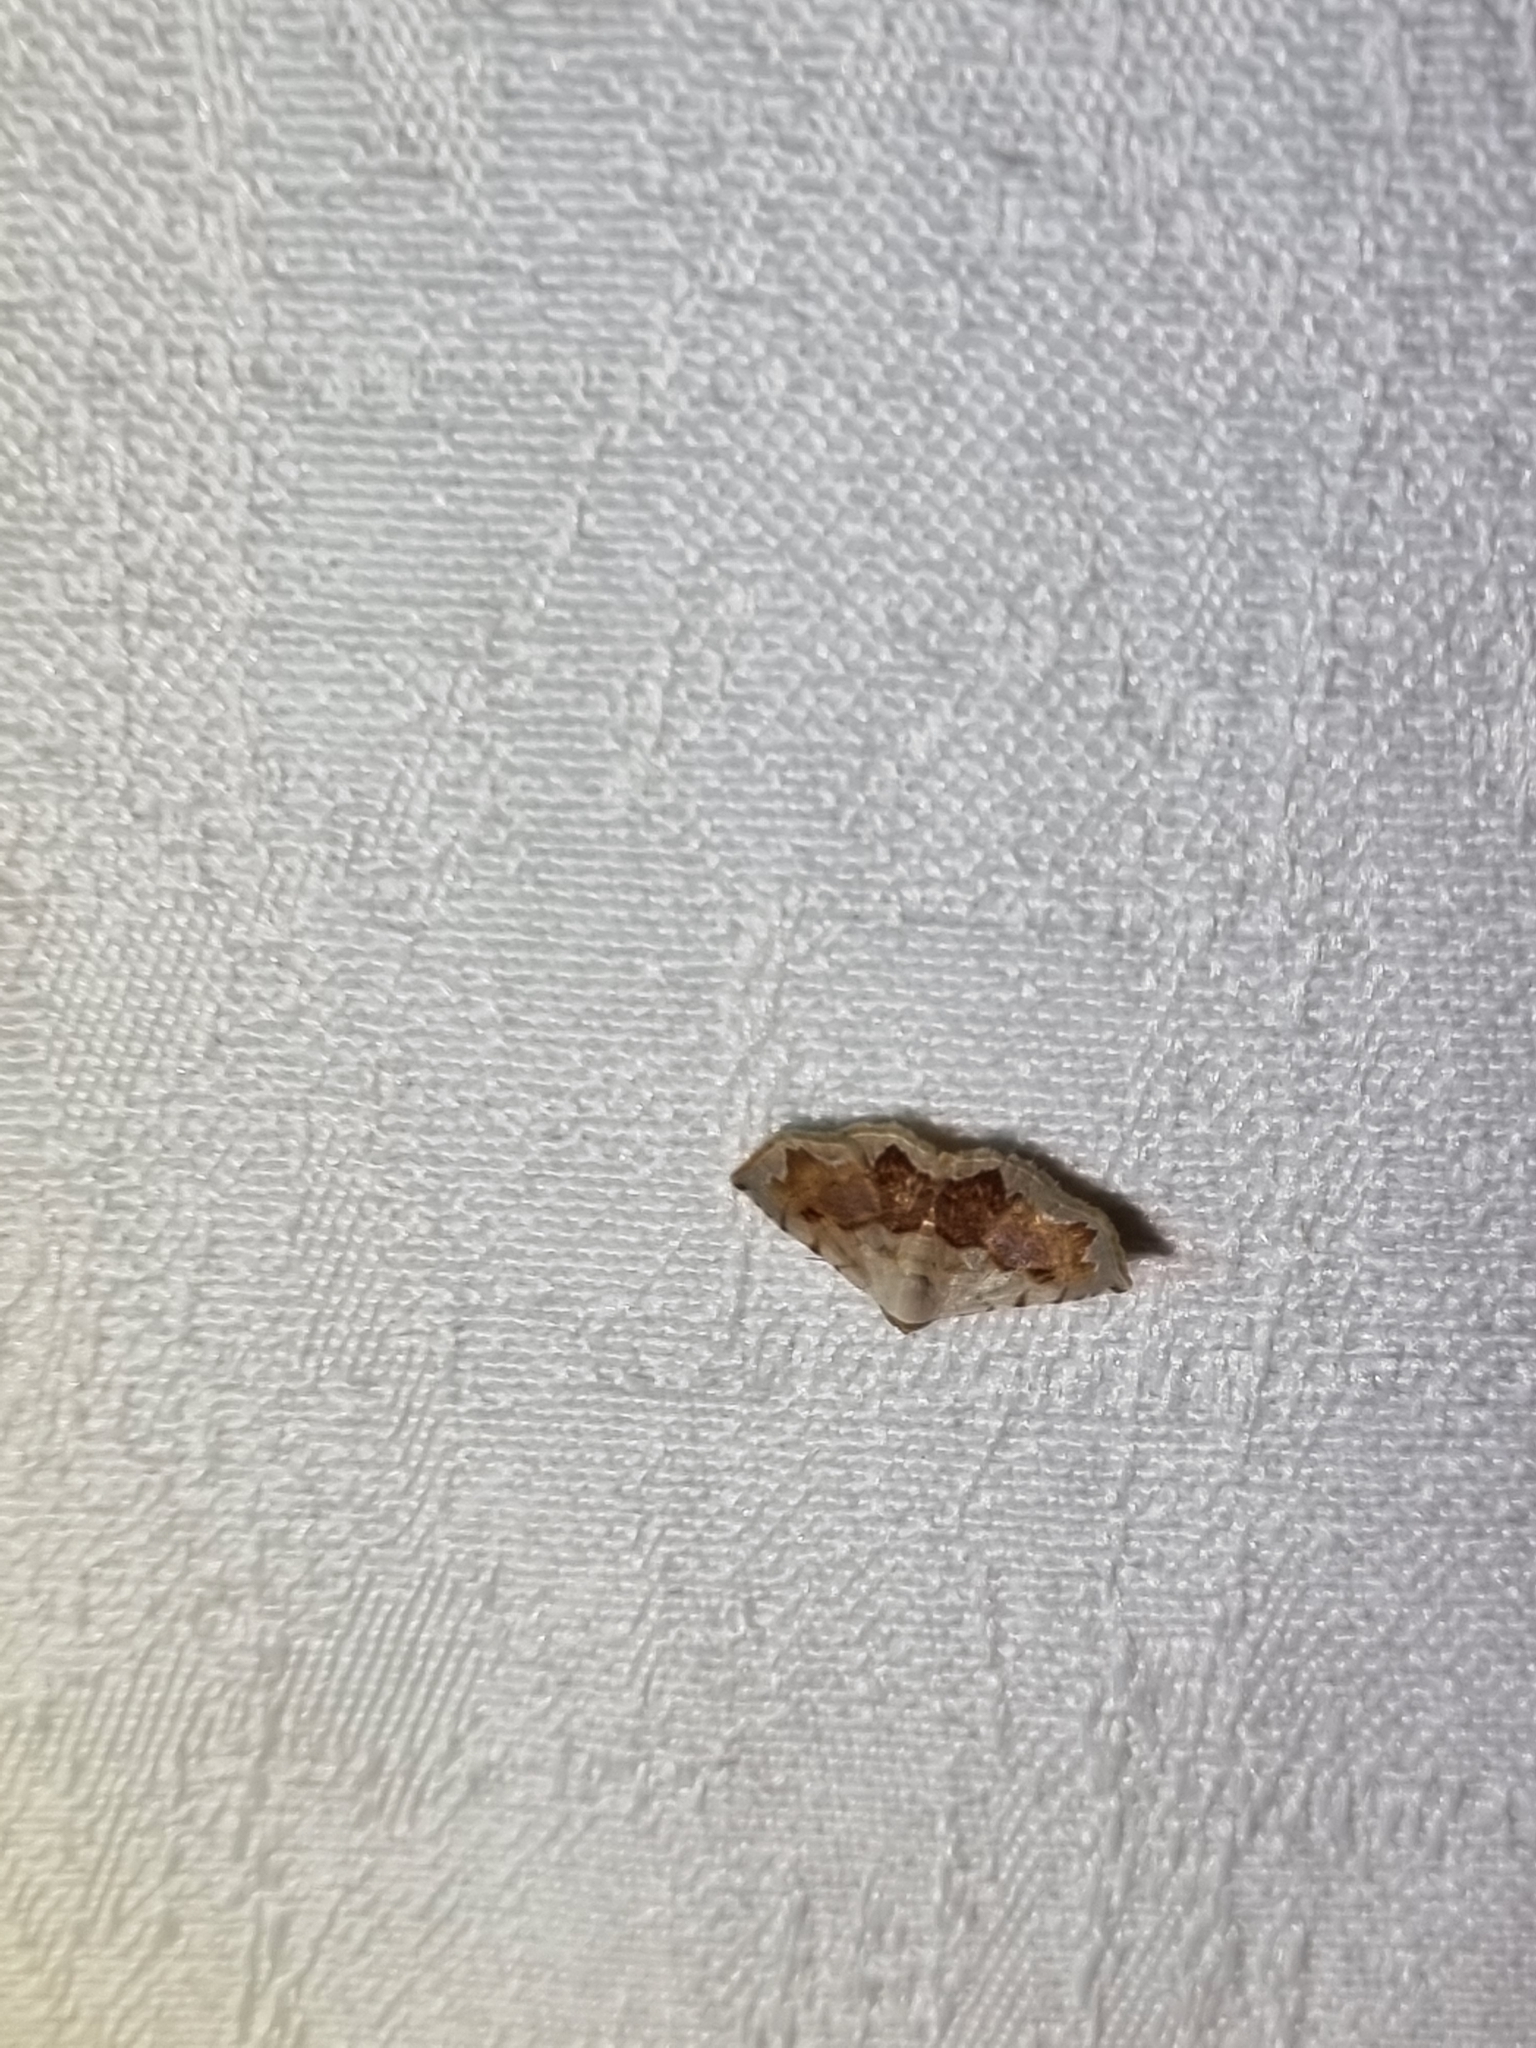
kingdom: Animalia
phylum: Arthropoda
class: Insecta
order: Lepidoptera
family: Noctuidae
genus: Eublemma
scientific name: Eublemma
